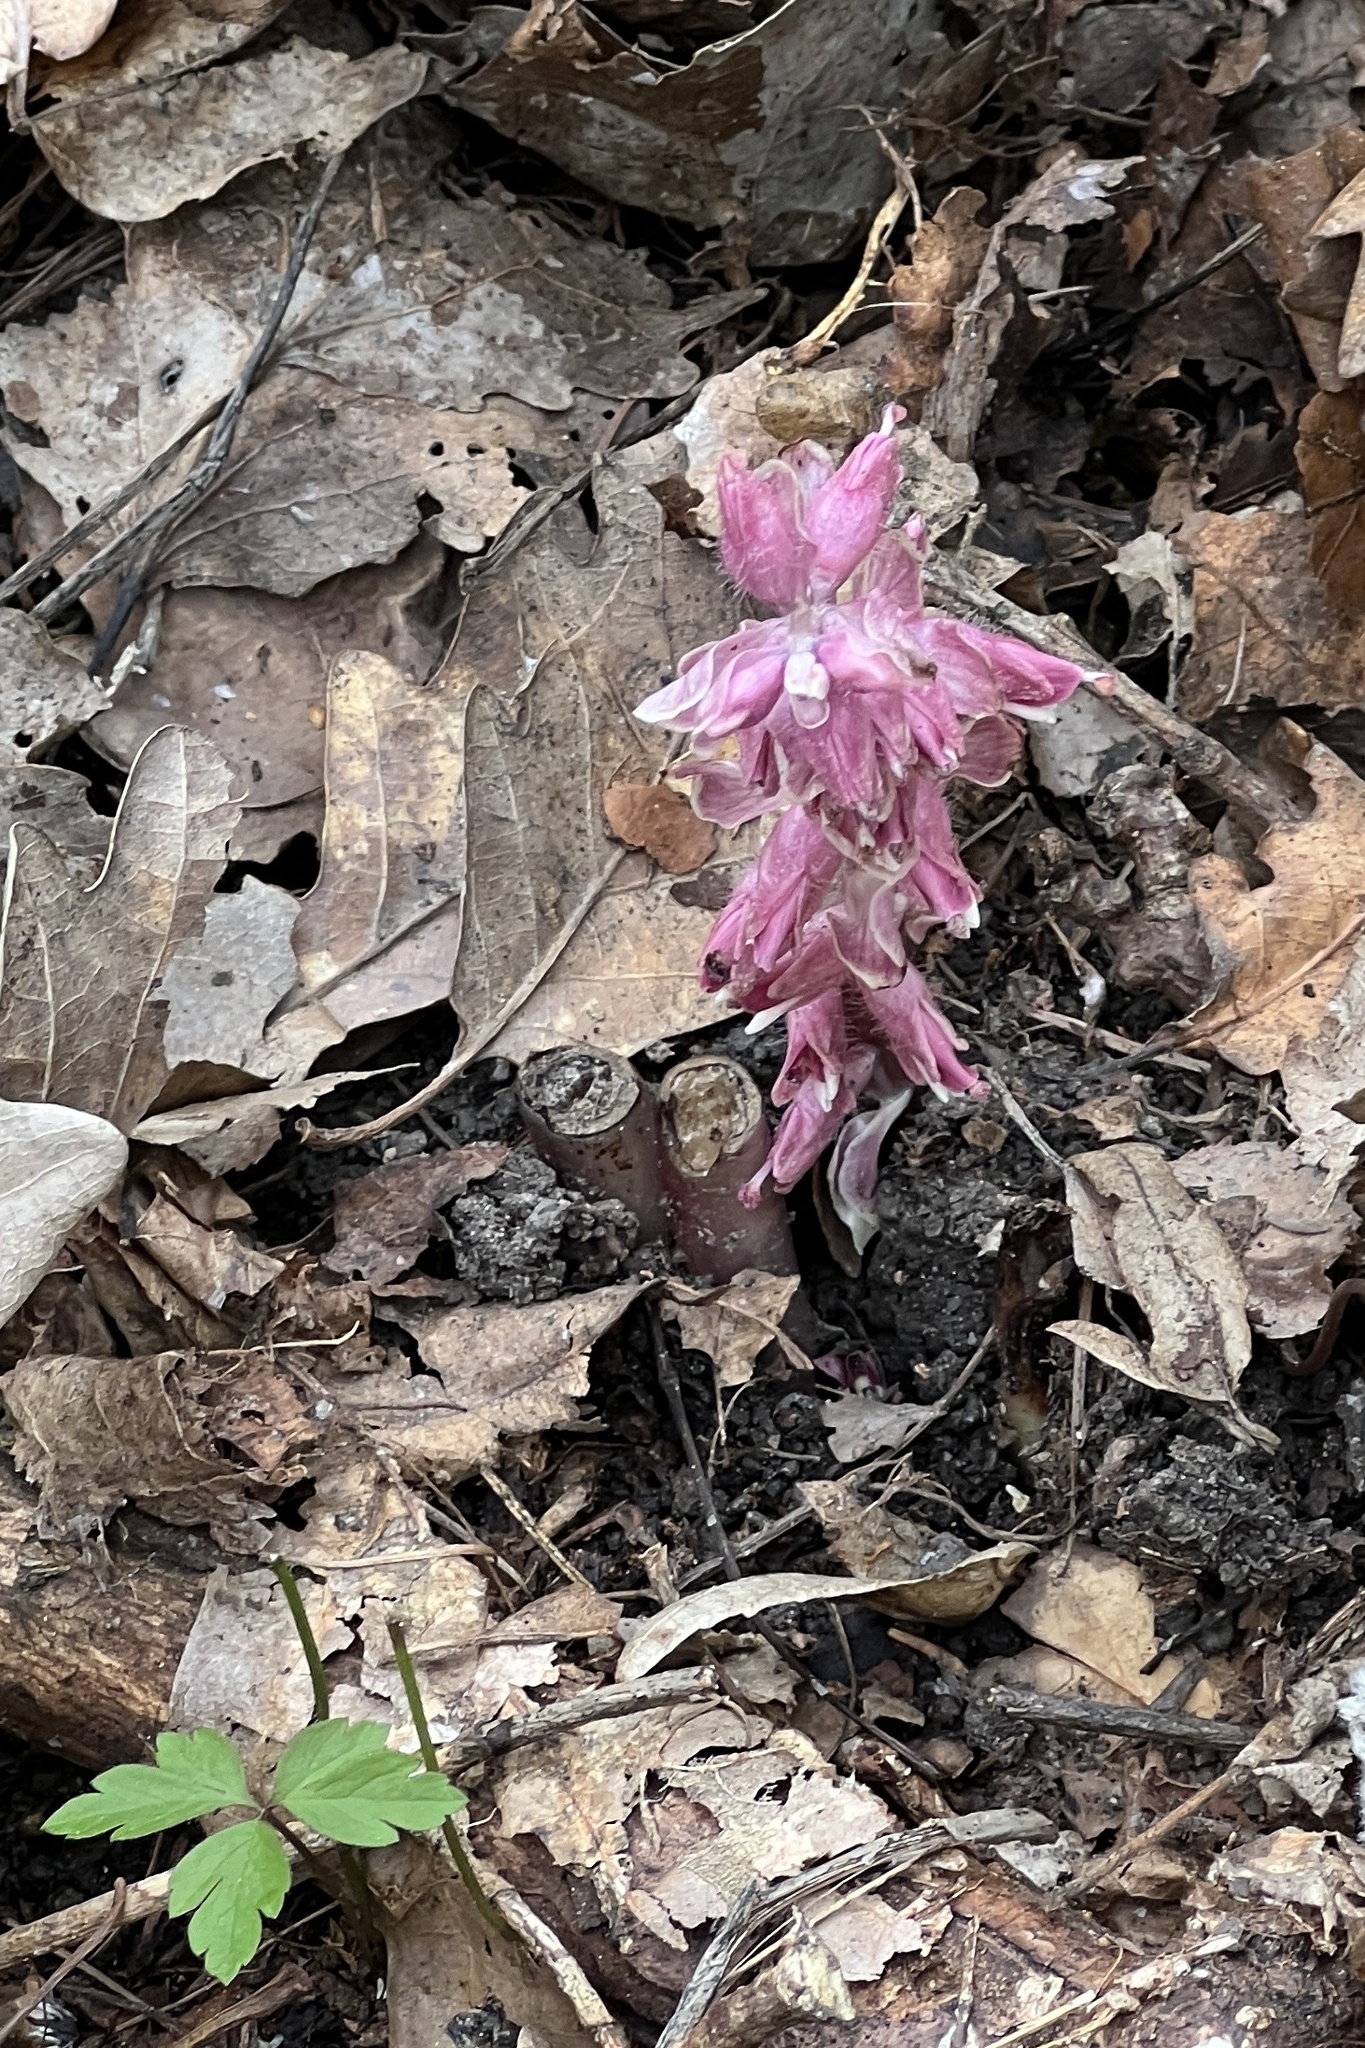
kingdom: Plantae
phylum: Tracheophyta
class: Magnoliopsida
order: Lamiales
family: Orobanchaceae
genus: Lathraea
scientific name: Lathraea squamaria
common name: Toothwort
